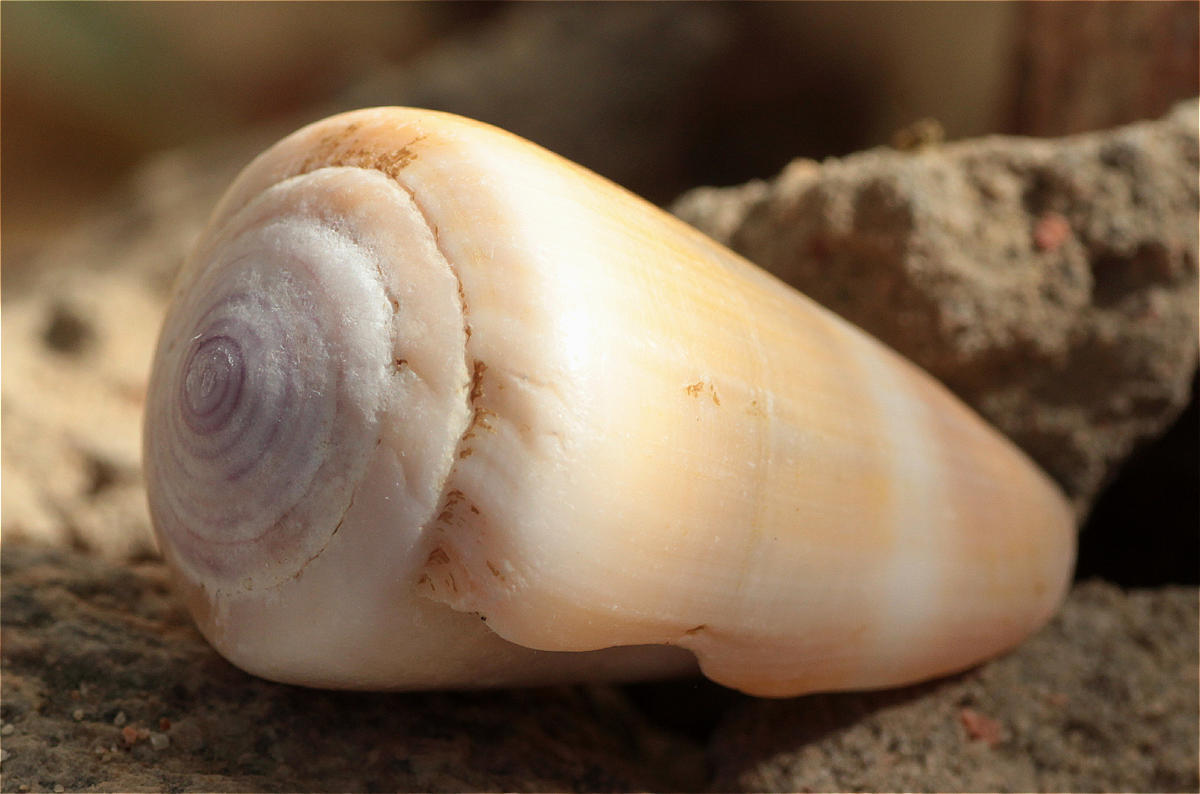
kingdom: Animalia
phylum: Mollusca
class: Gastropoda
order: Neogastropoda
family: Conidae
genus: Conus
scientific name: Conus flavidus
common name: Golden-yellow cone
